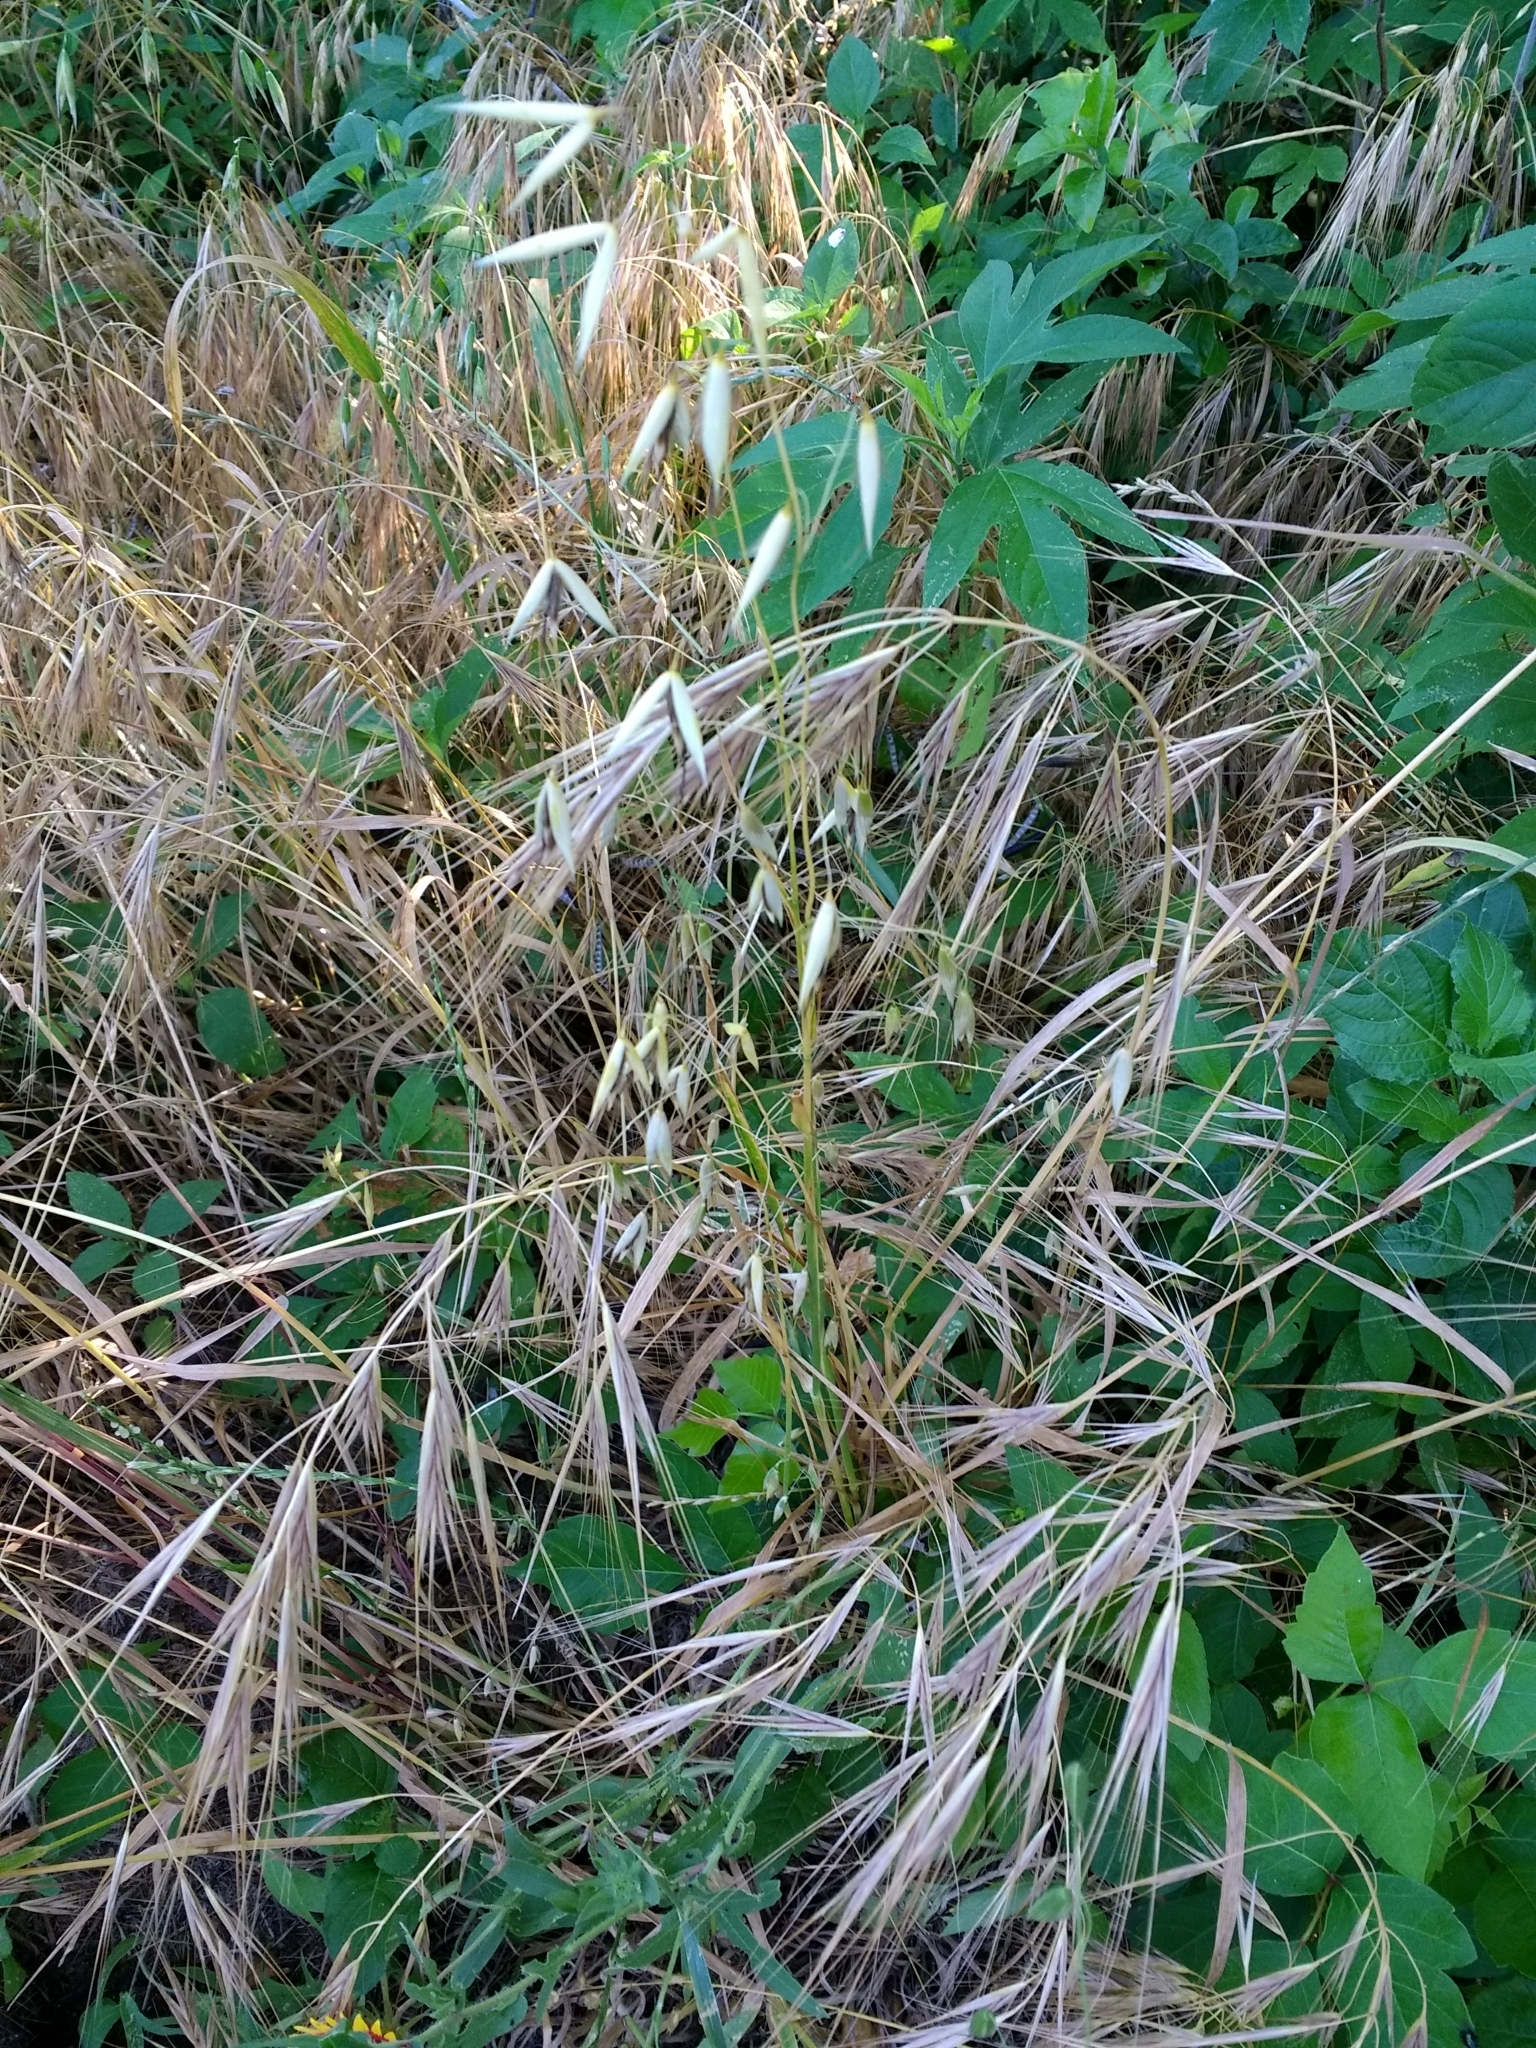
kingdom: Plantae
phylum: Tracheophyta
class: Liliopsida
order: Poales
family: Poaceae
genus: Bromus
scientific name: Bromus tectorum
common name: Cheatgrass
